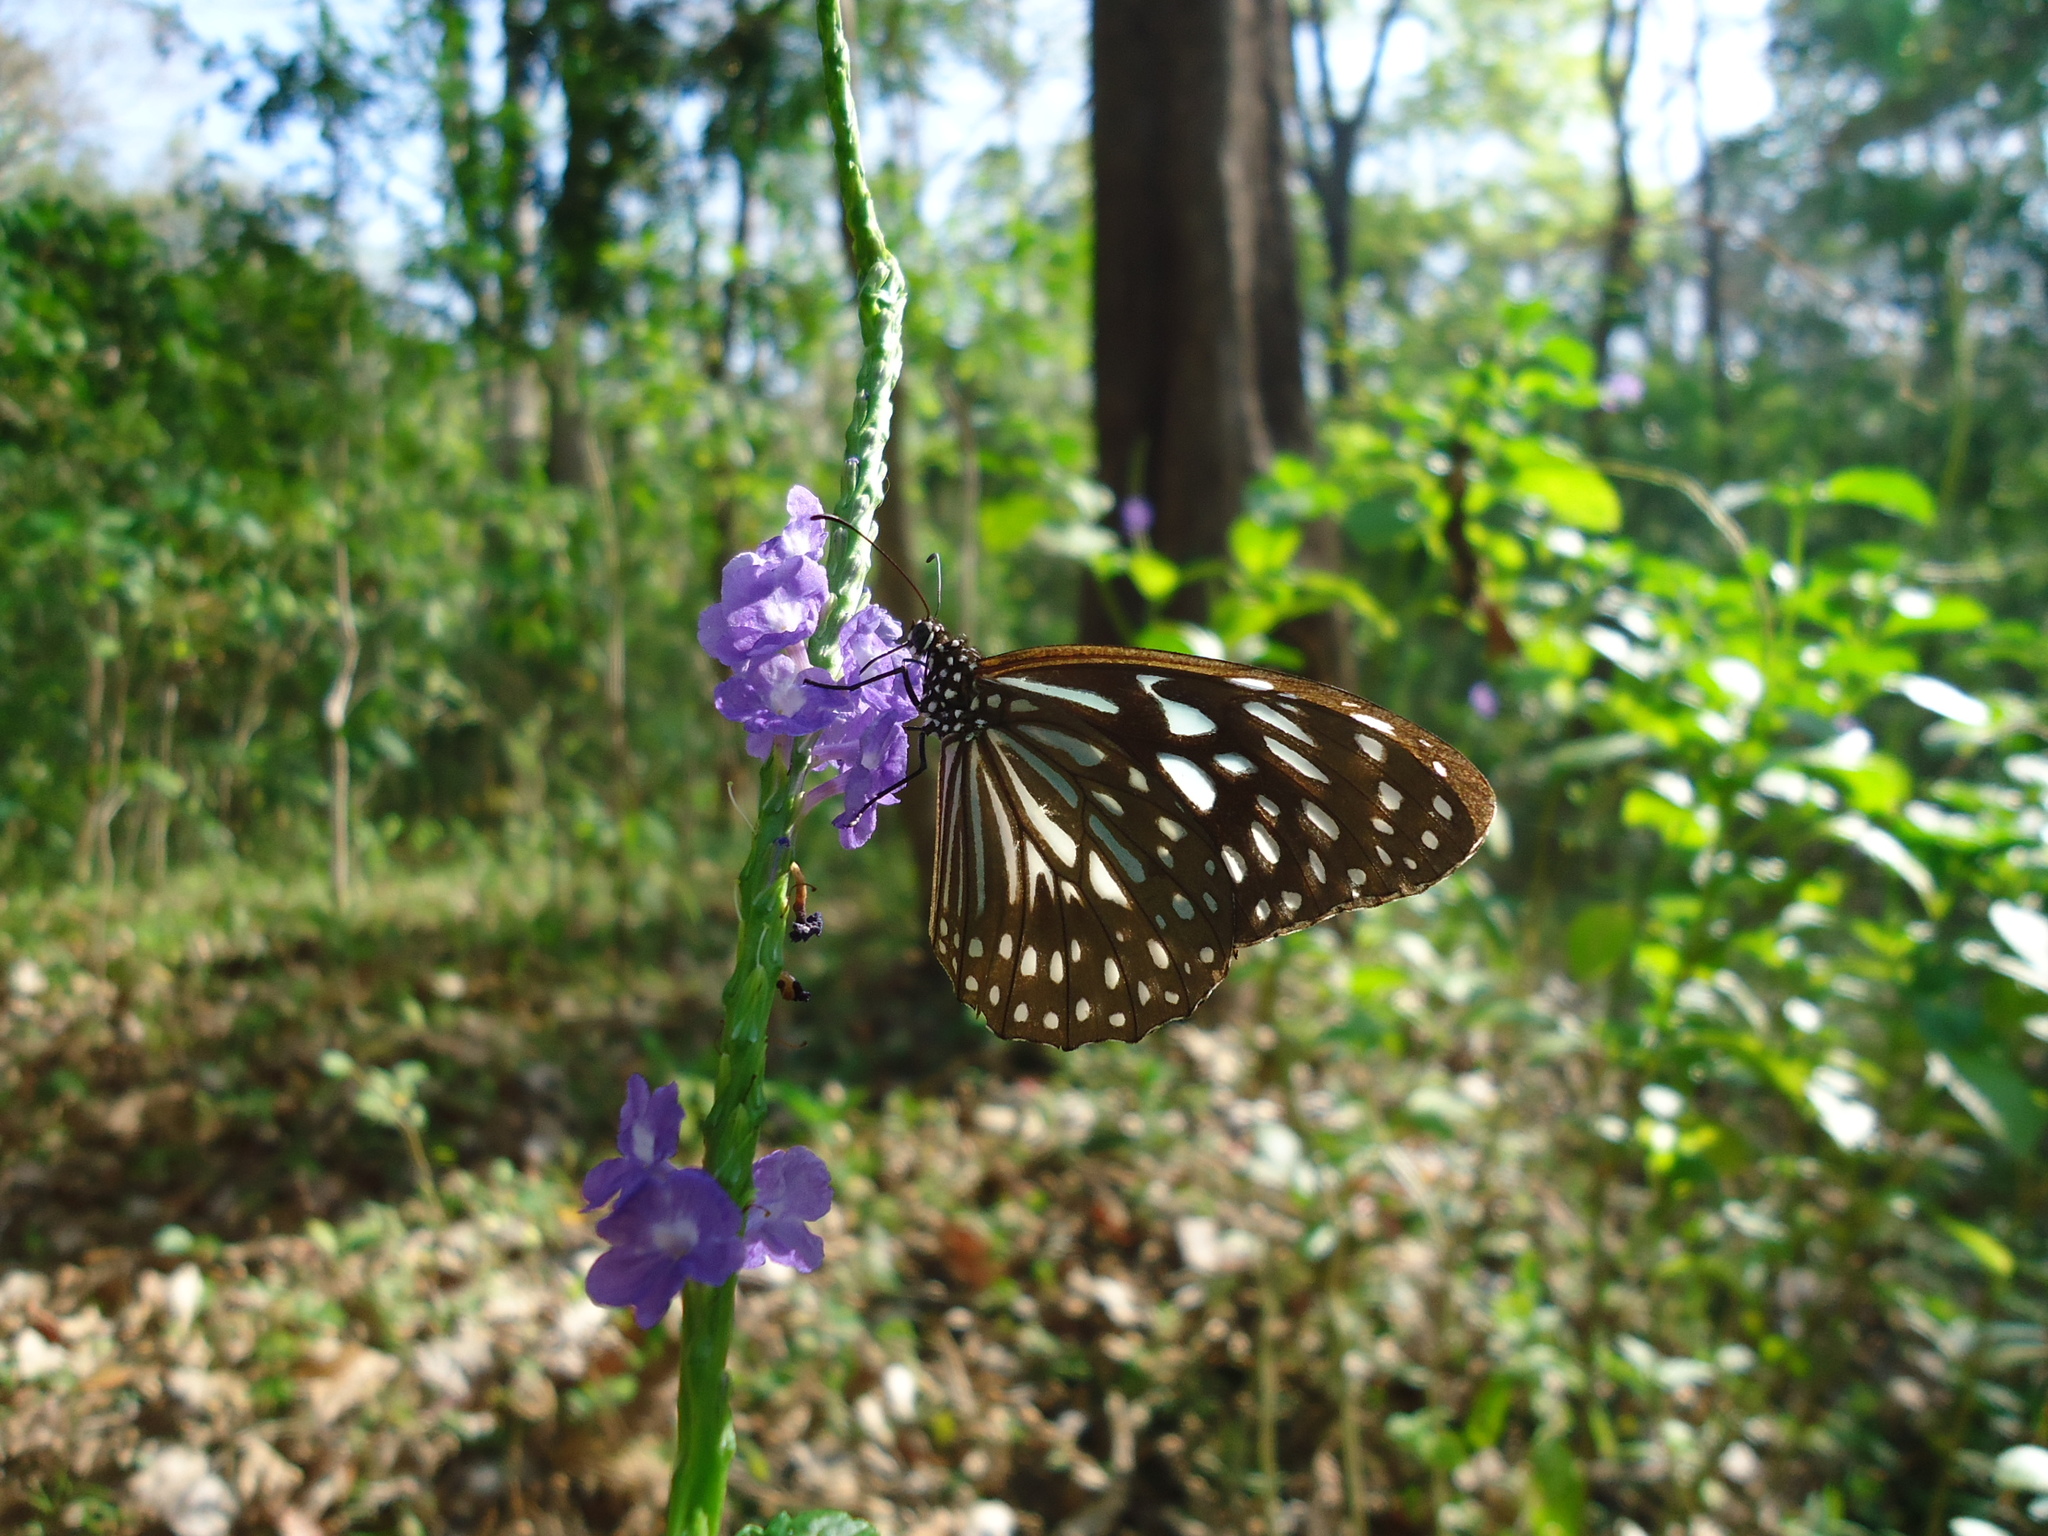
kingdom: Animalia
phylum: Arthropoda
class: Insecta
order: Lepidoptera
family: Nymphalidae
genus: Tirumala
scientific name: Tirumala septentrionis
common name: Dark blue tiger butterfly
